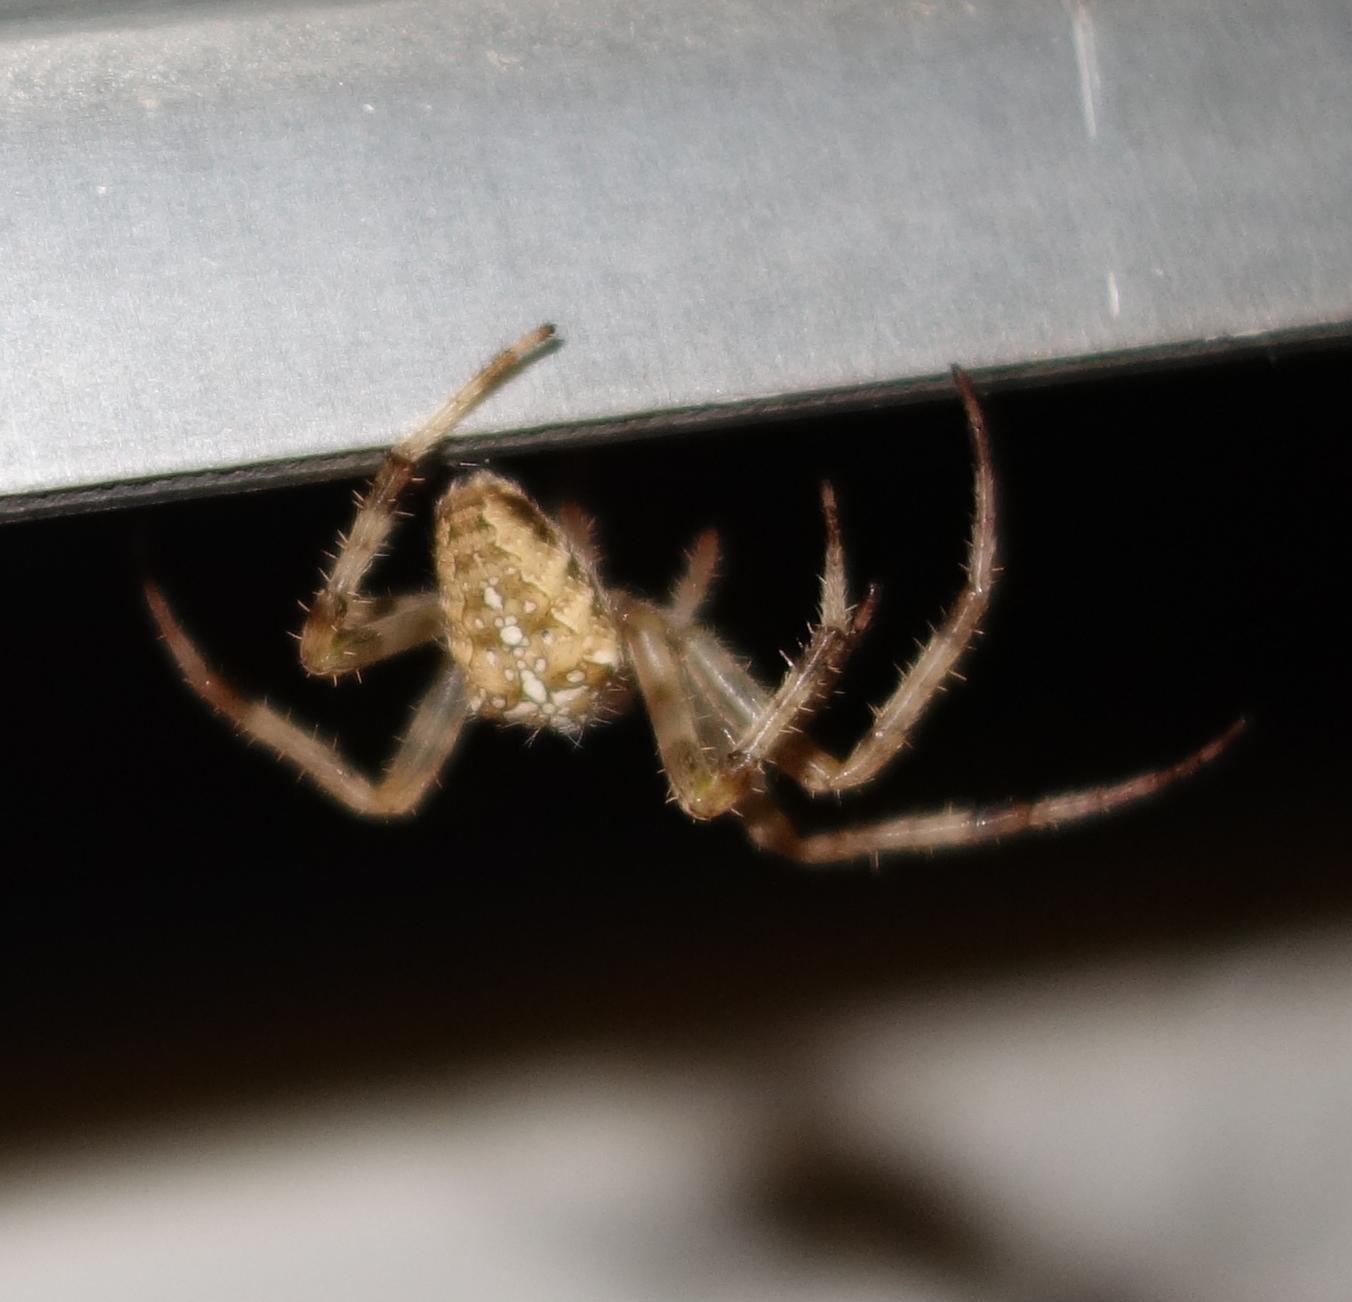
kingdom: Animalia
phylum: Arthropoda
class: Arachnida
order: Araneae
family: Araneidae
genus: Araneus
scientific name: Araneus diadematus
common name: Cross orbweaver
